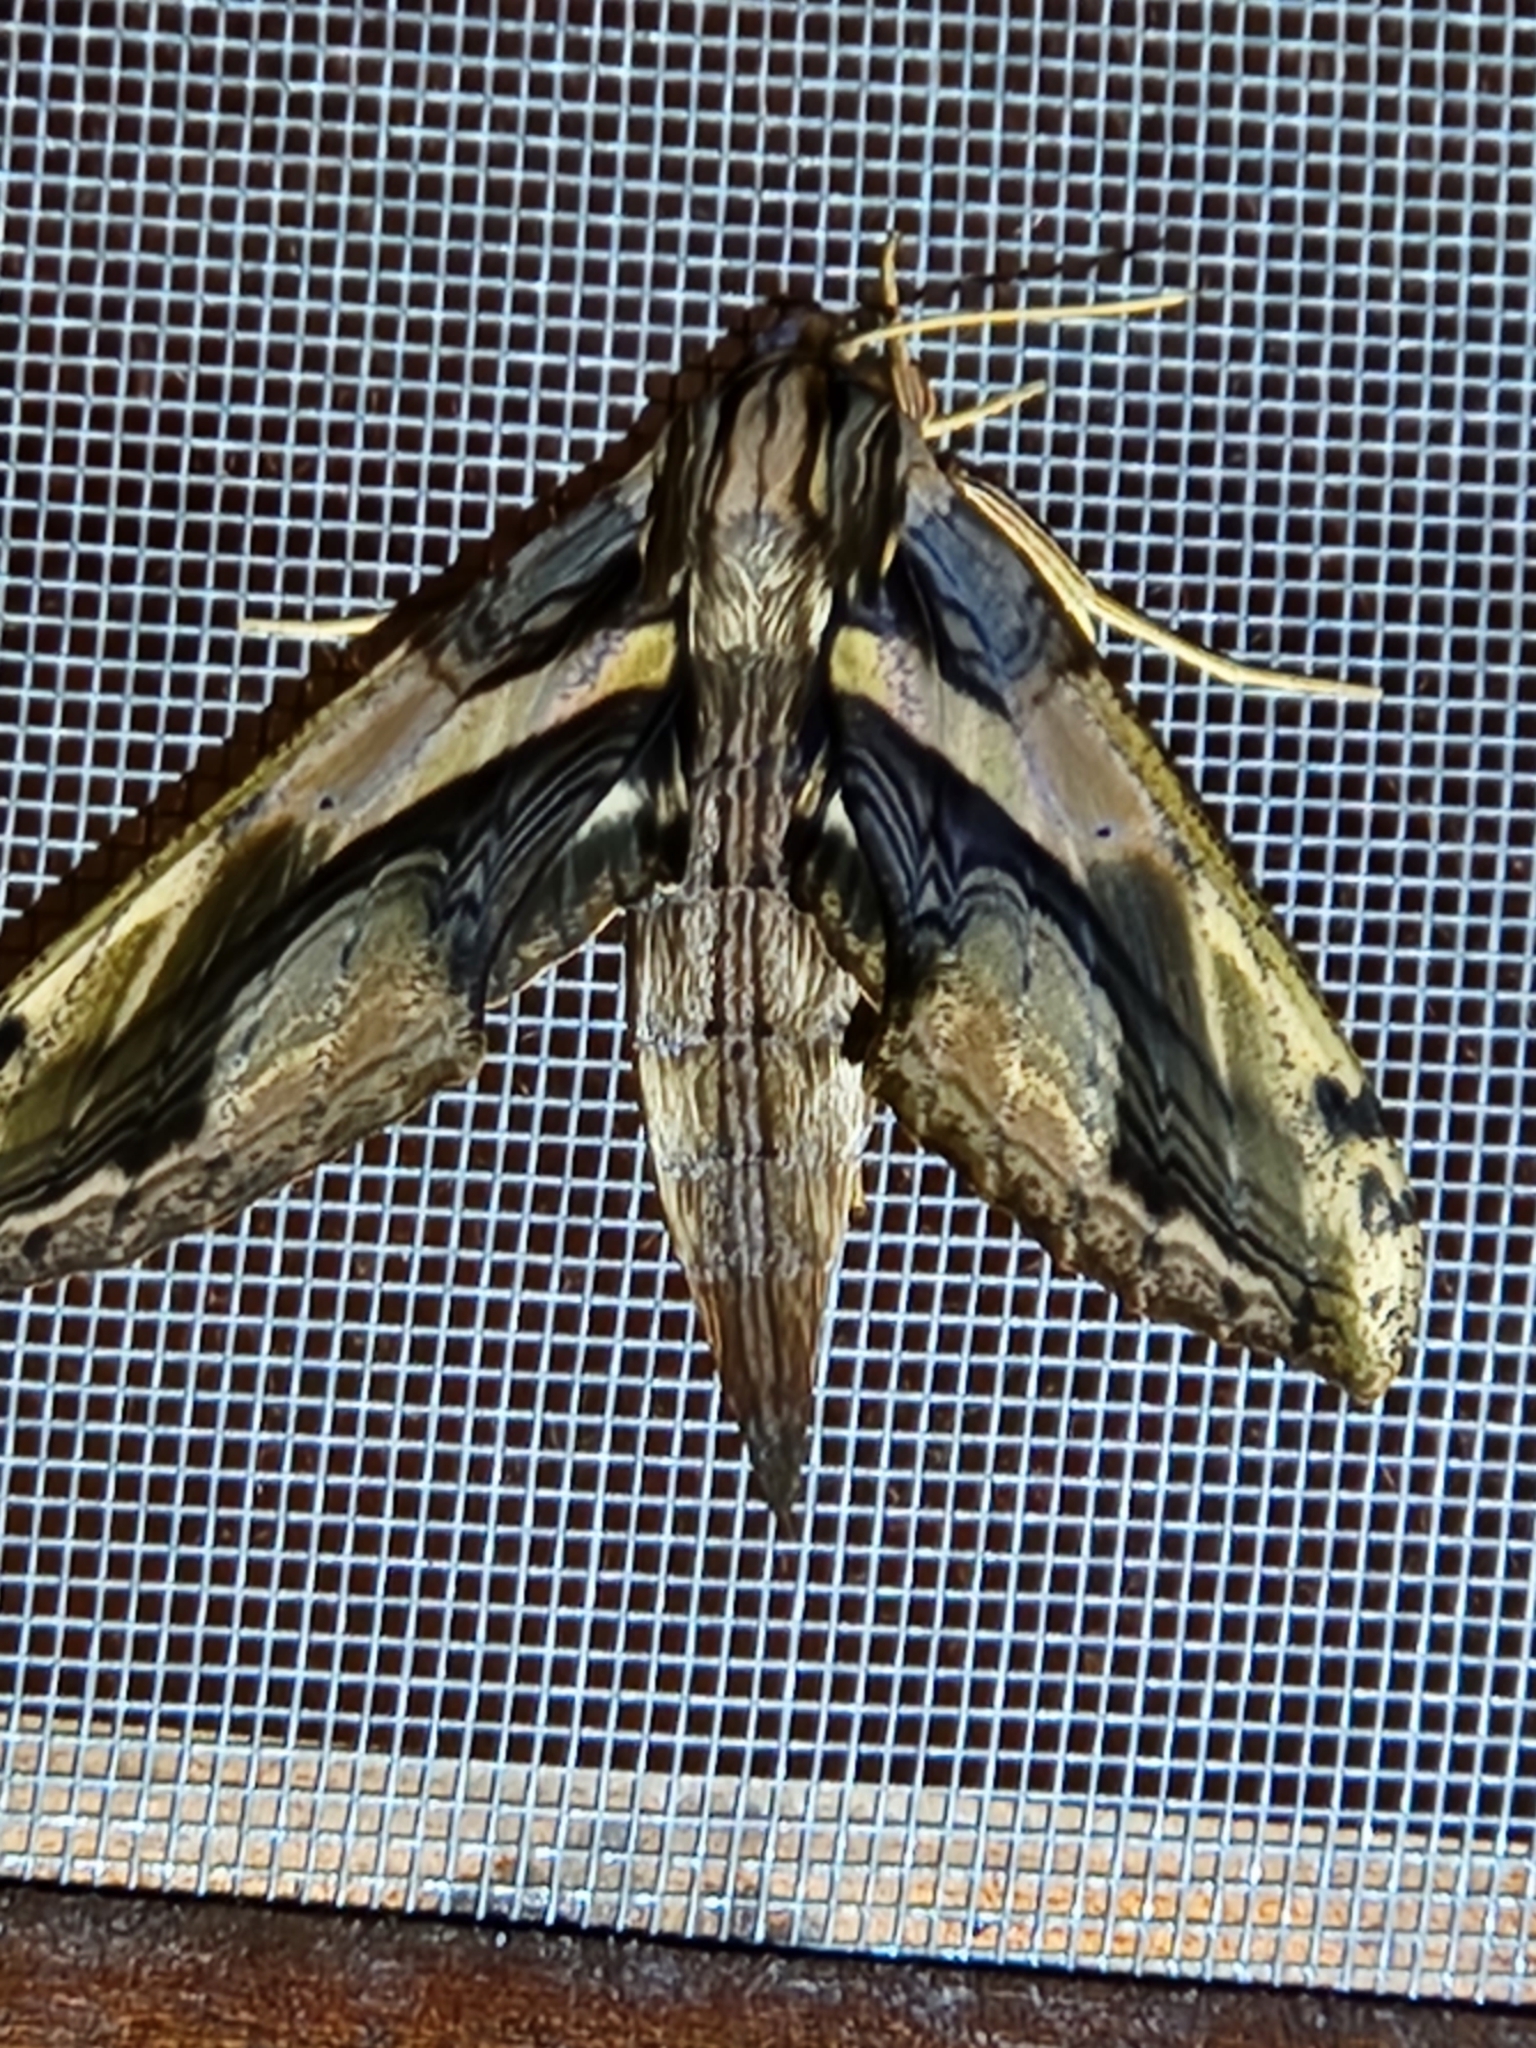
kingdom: Animalia
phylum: Arthropoda
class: Insecta
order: Lepidoptera
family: Sphingidae
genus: Xylophanes
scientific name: Xylophanes ceratomioides
